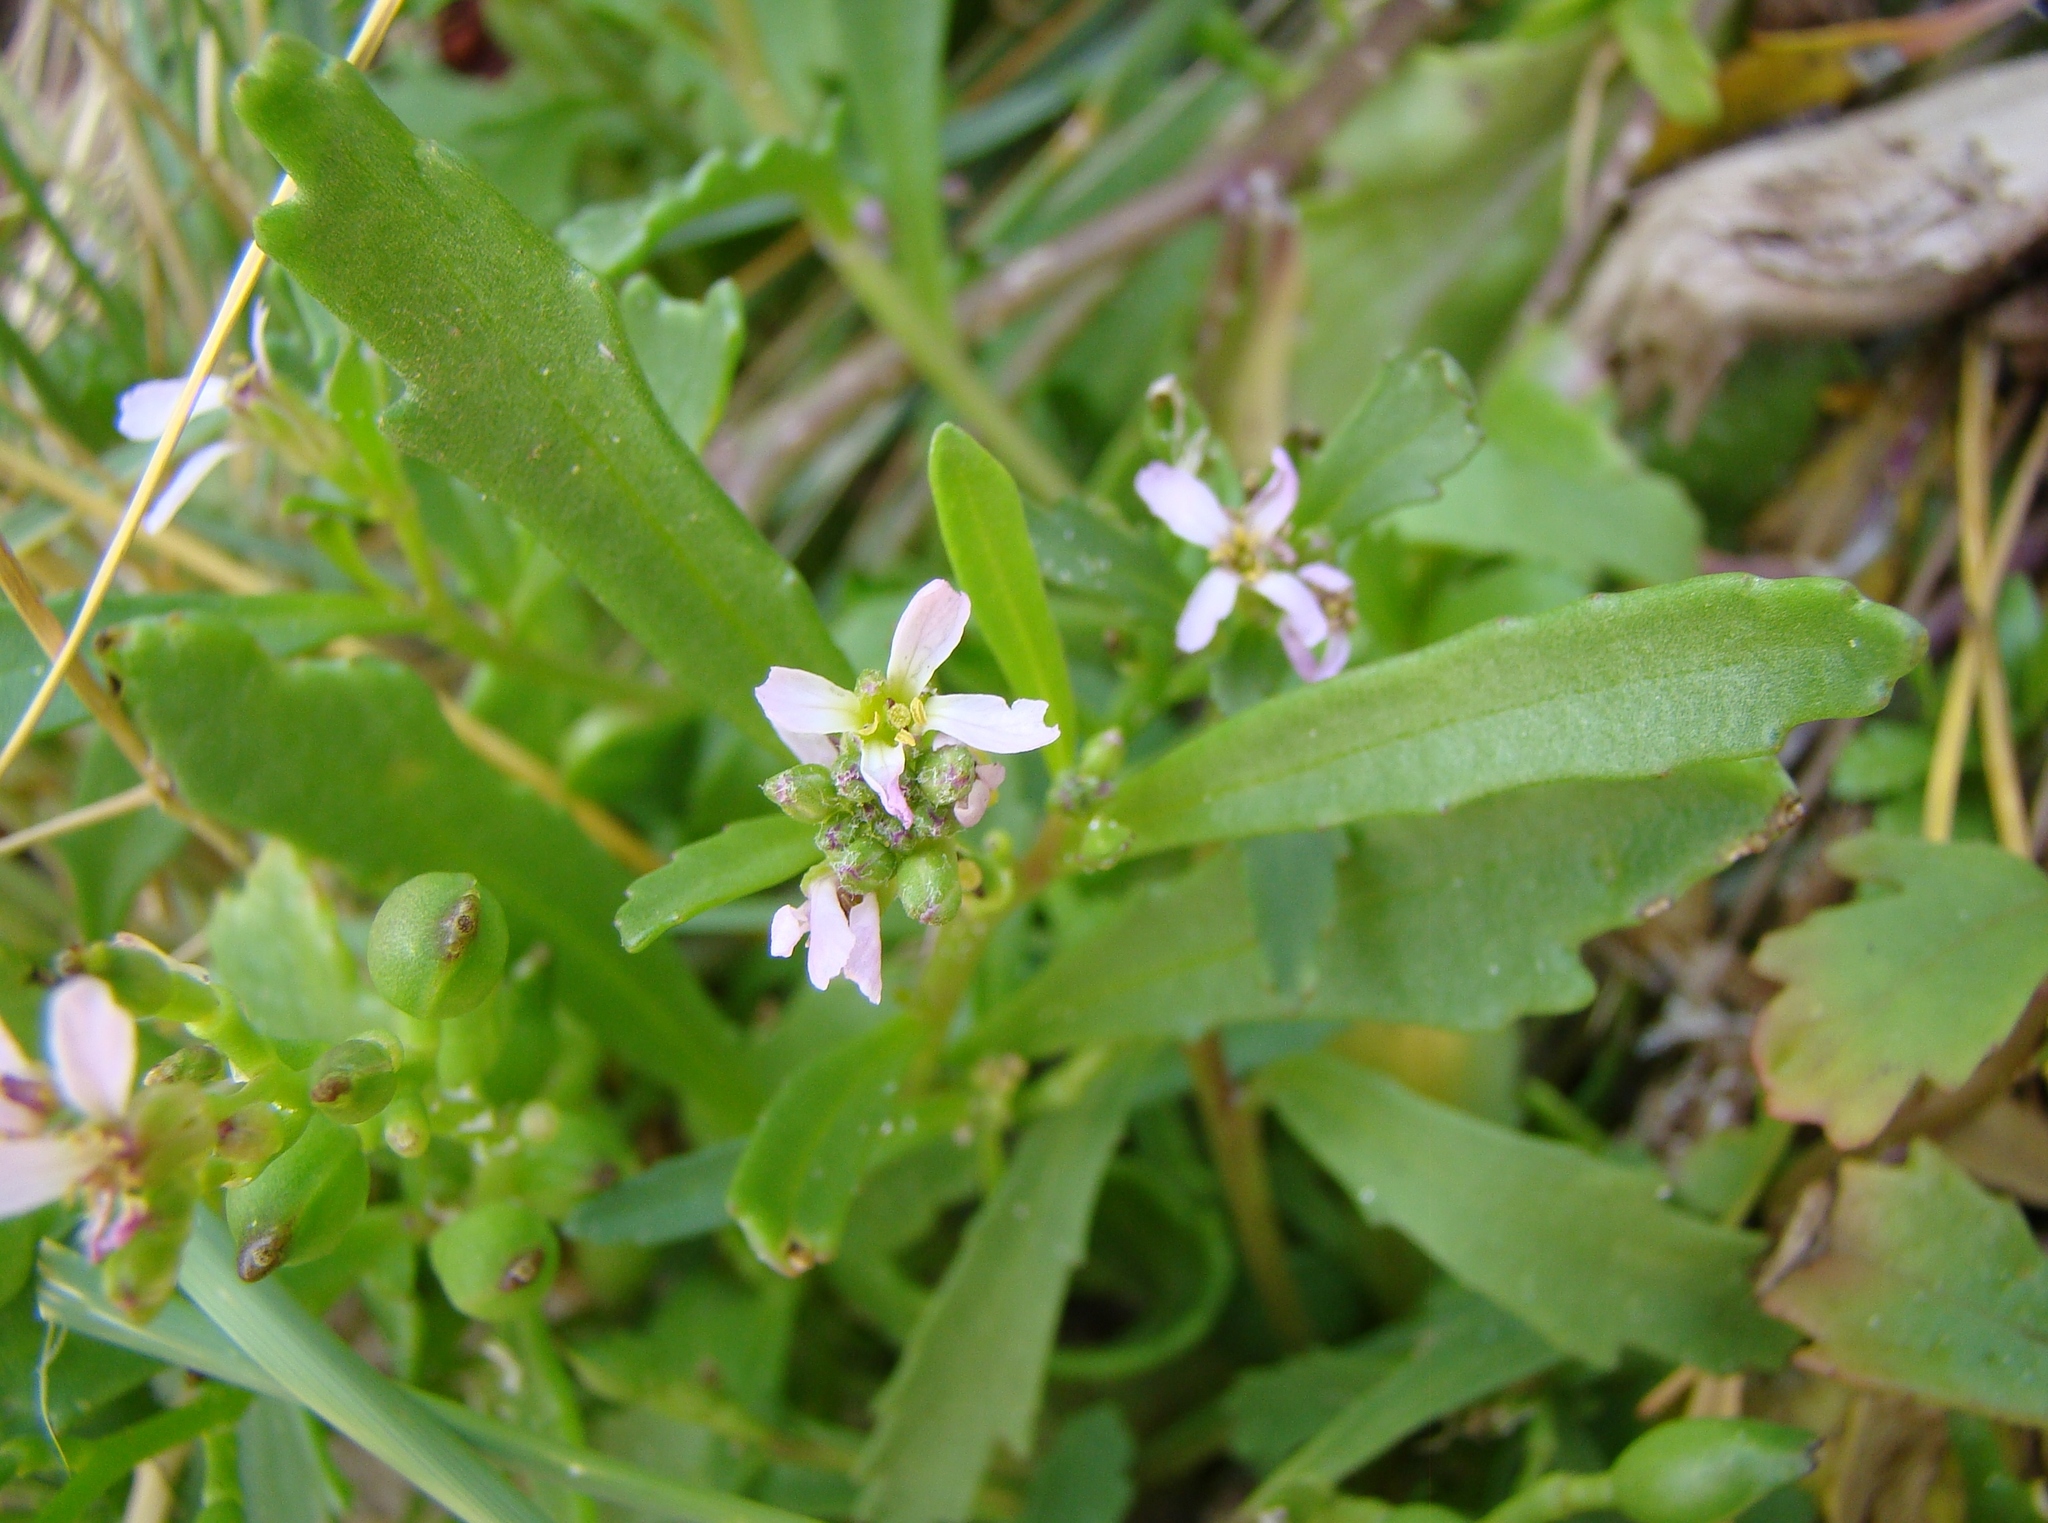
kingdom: Plantae
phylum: Tracheophyta
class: Magnoliopsida
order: Brassicales
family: Brassicaceae
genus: Cakile
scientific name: Cakile edentula
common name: American sea rocket
